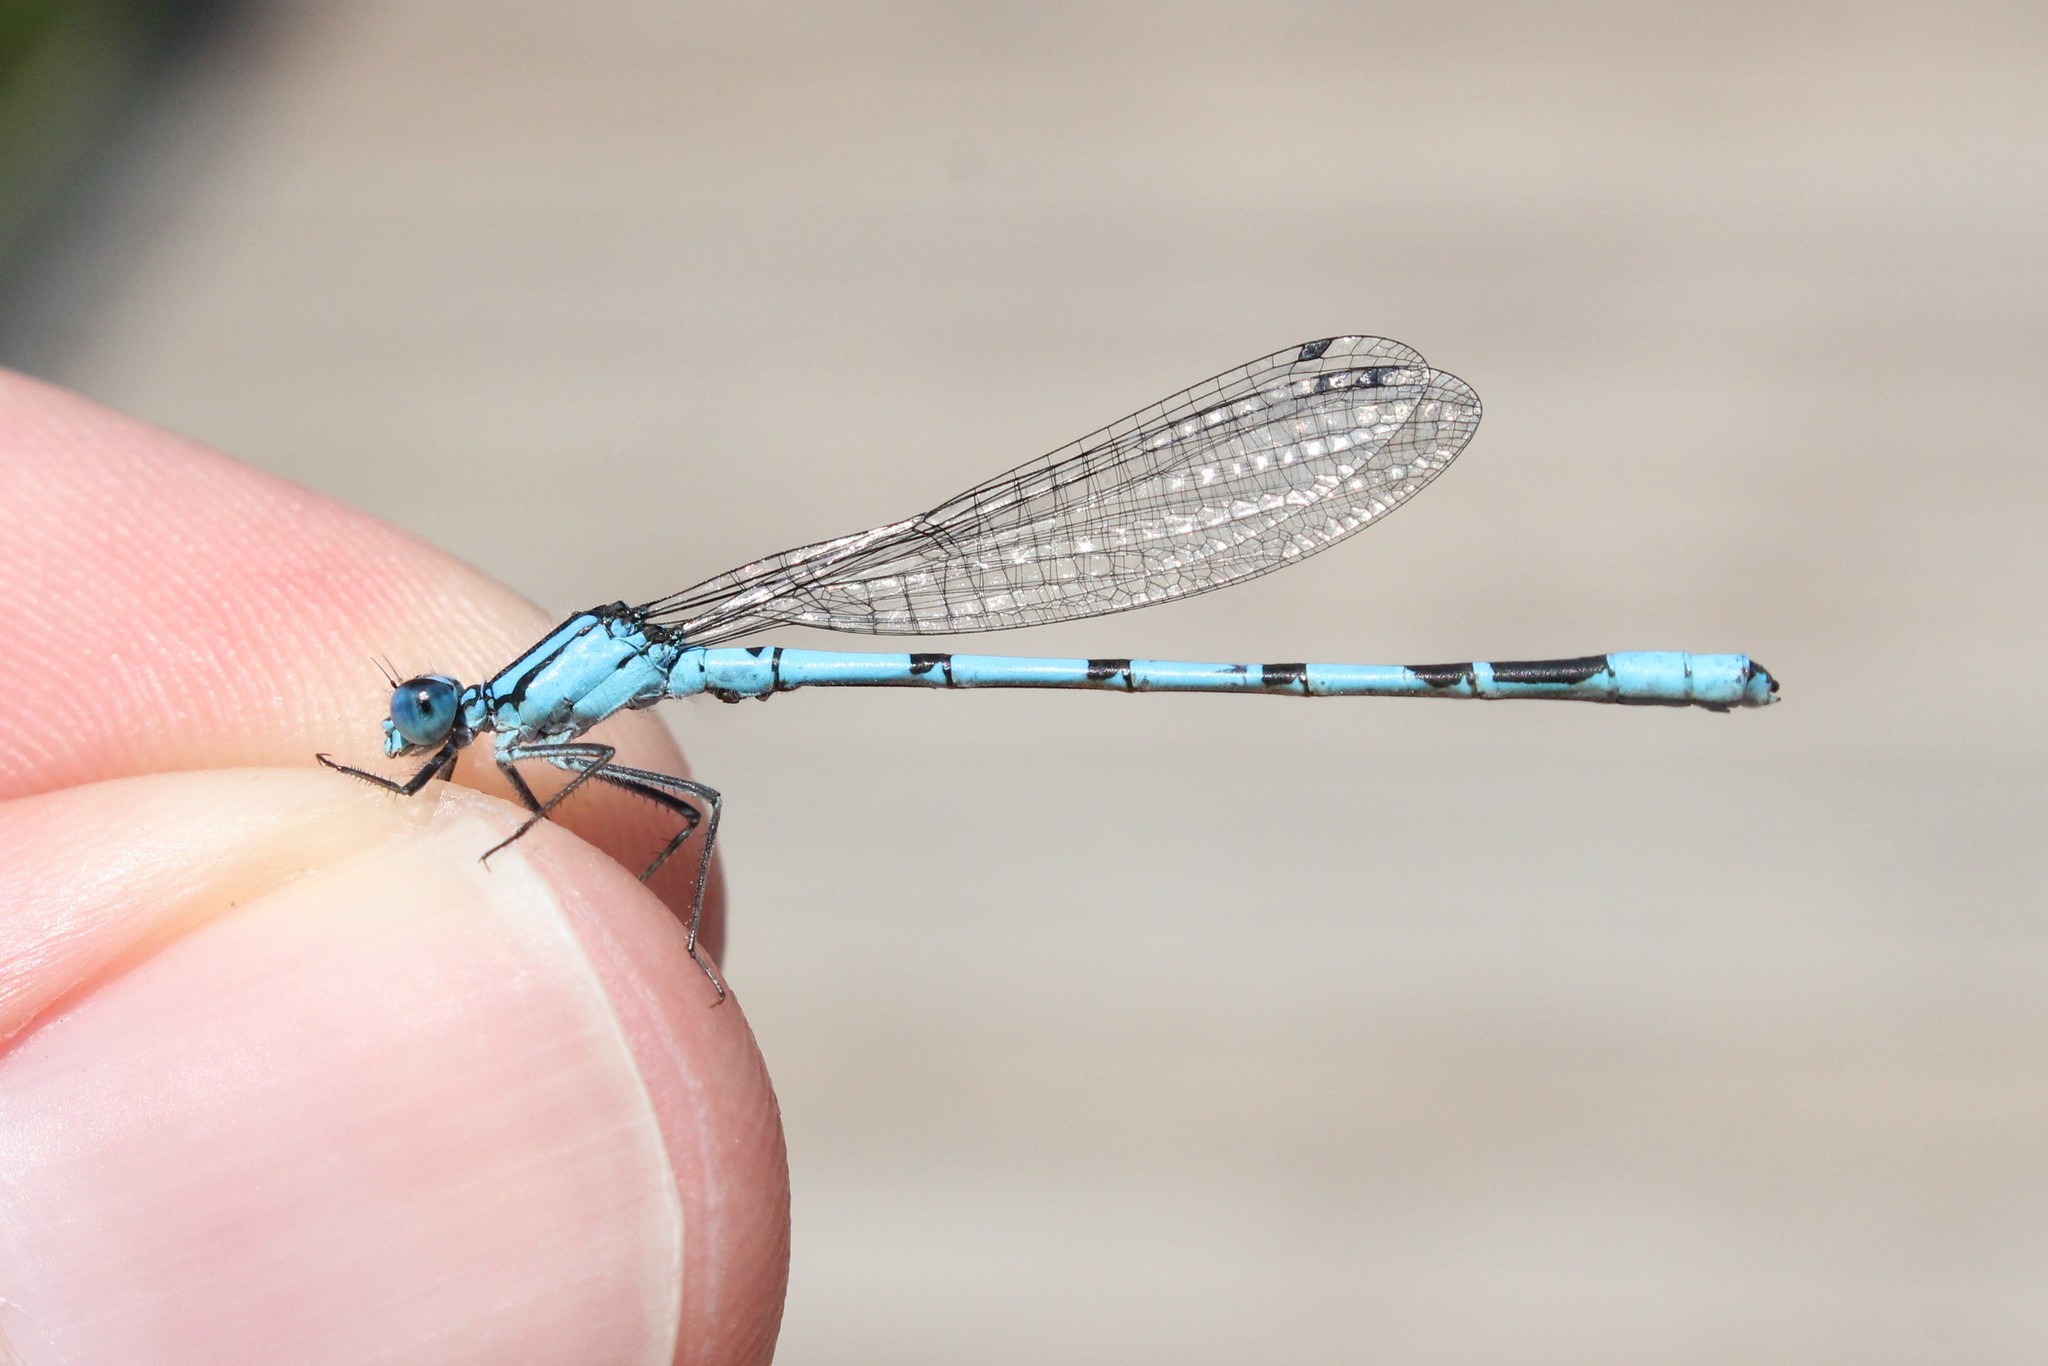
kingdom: Animalia
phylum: Arthropoda
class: Insecta
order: Odonata
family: Coenagrionidae
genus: Enallagma
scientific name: Enallagma boreale
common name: Boreal bluet
